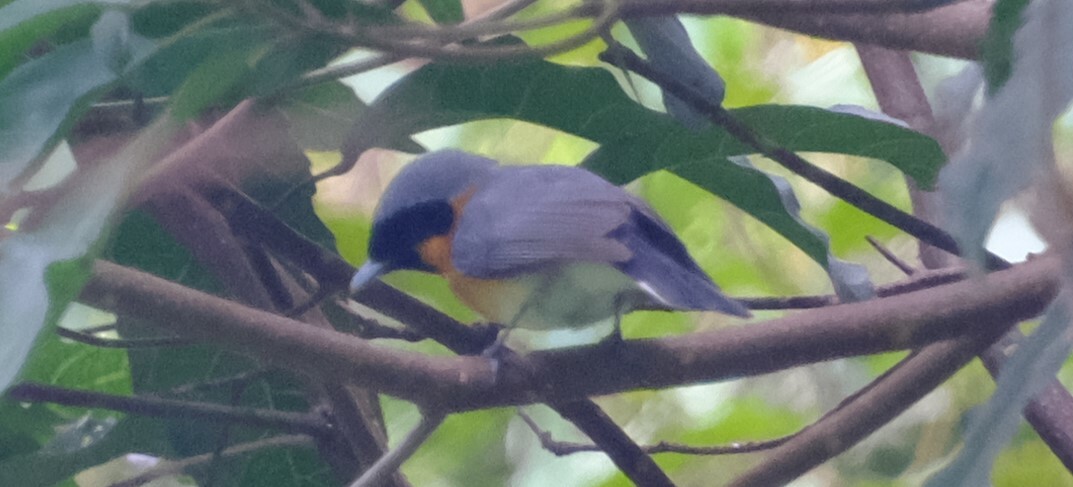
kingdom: Animalia
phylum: Chordata
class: Aves
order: Passeriformes
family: Monarchidae
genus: Symposiachrus
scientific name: Symposiachrus trivirgatus
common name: Spectacled monarch
